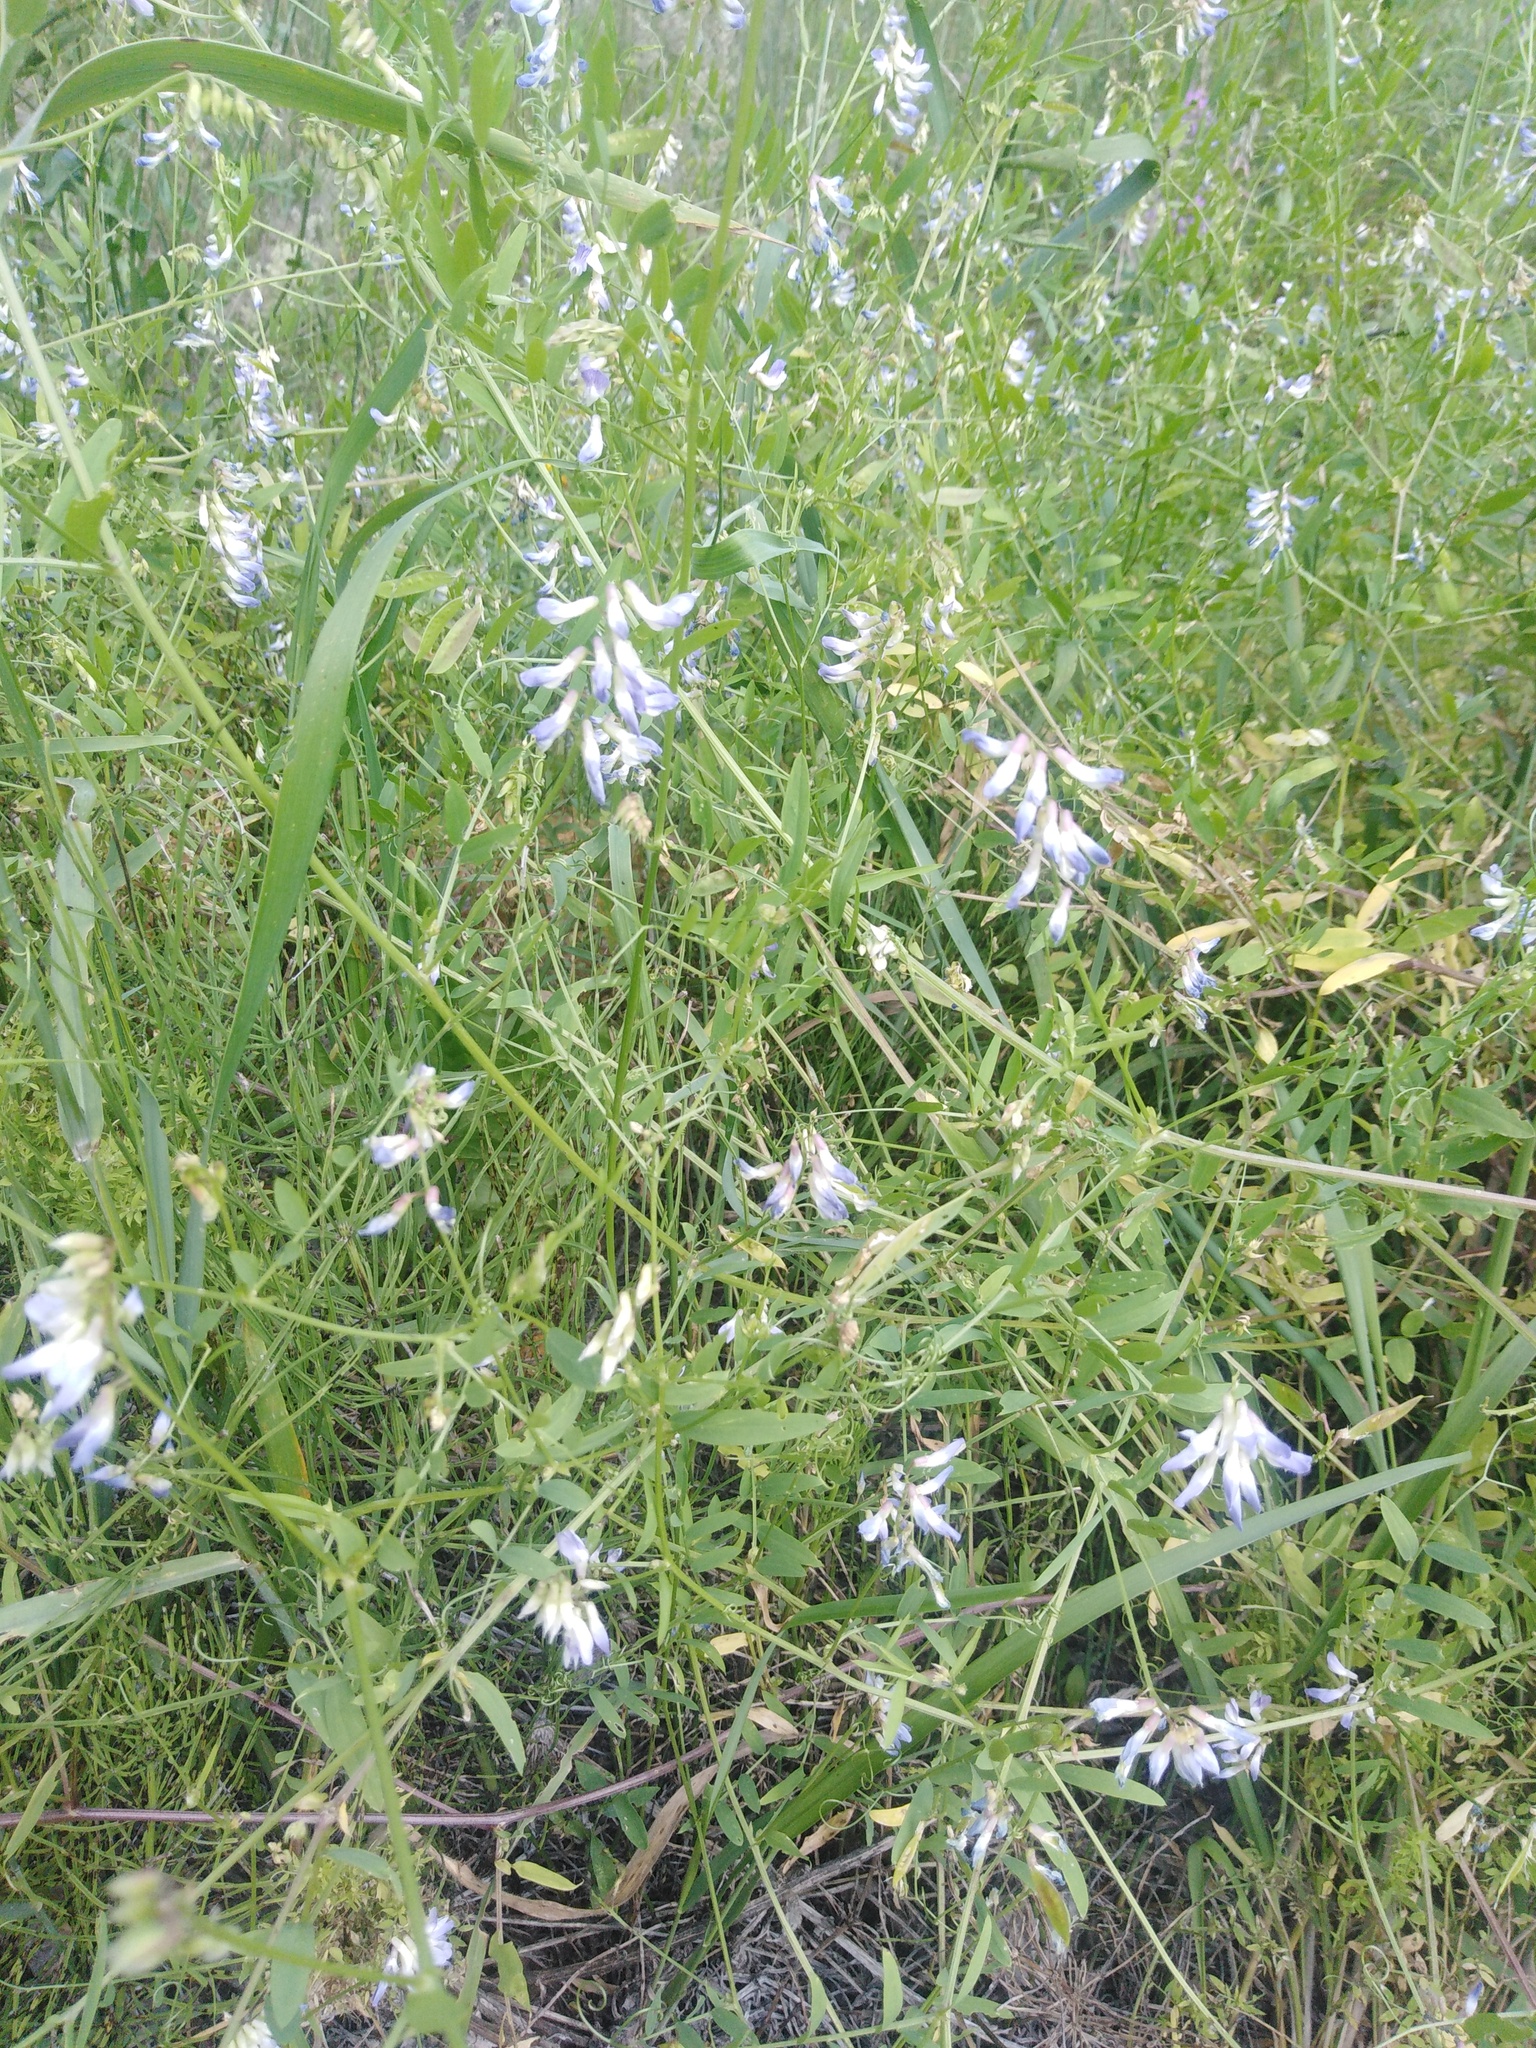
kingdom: Plantae
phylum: Tracheophyta
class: Magnoliopsida
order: Fabales
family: Fabaceae
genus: Vicia
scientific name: Vicia biennis
